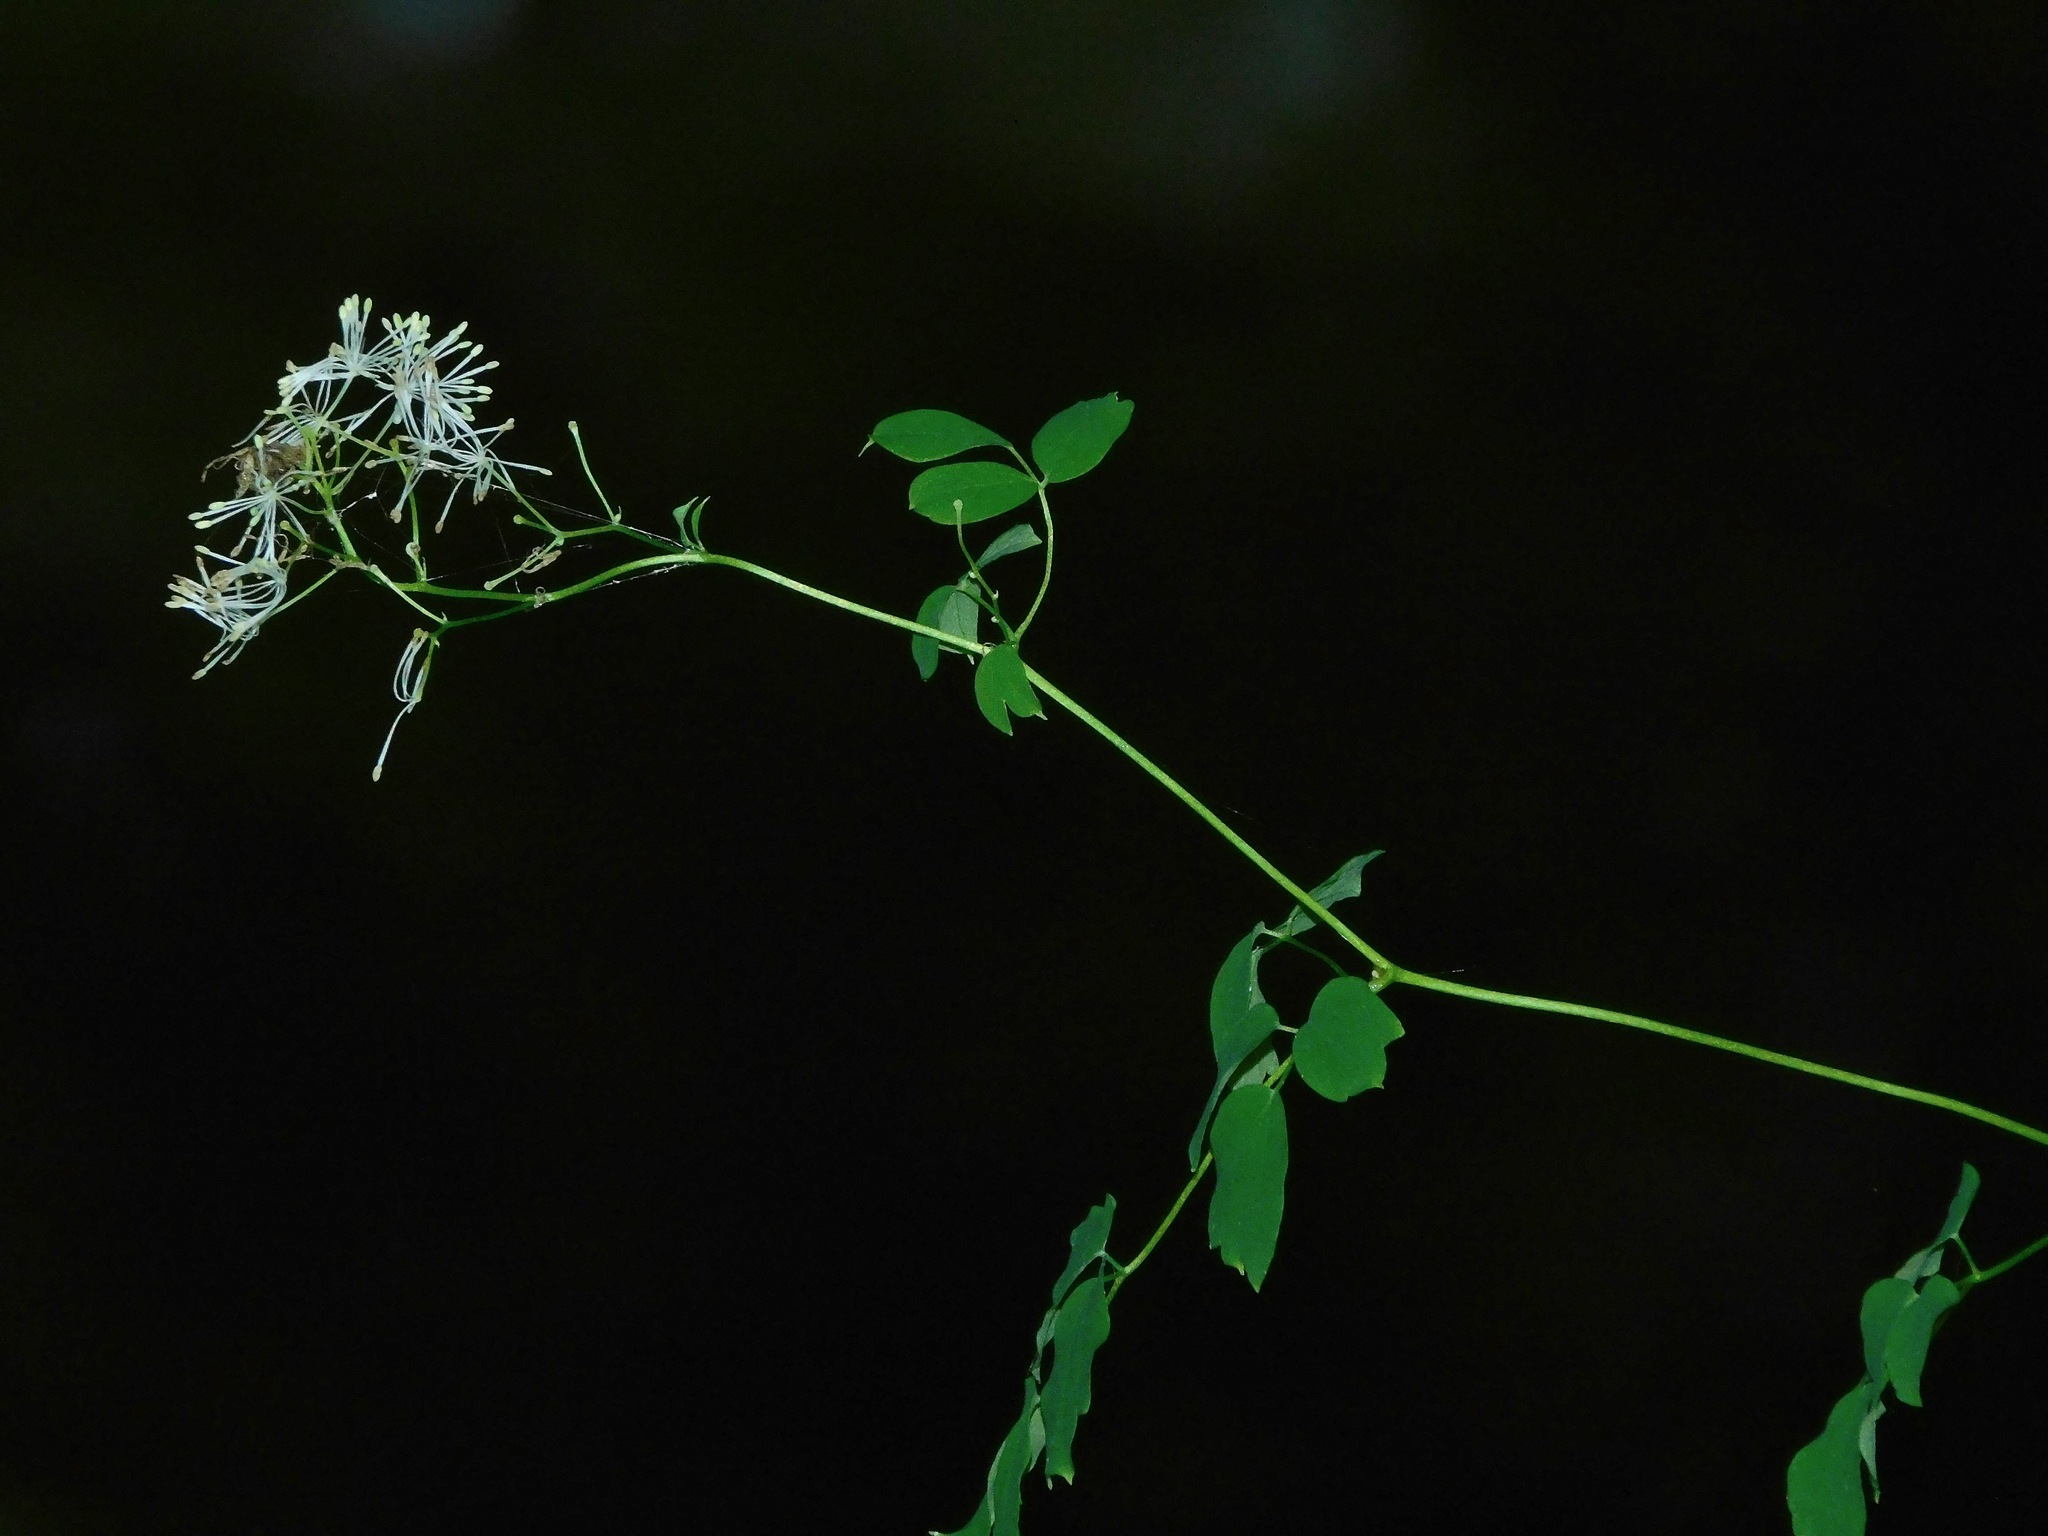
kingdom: Plantae
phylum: Tracheophyta
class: Magnoliopsida
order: Ranunculales
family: Ranunculaceae
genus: Thalictrum
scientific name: Thalictrum pubescens
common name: King-of-the-meadow
